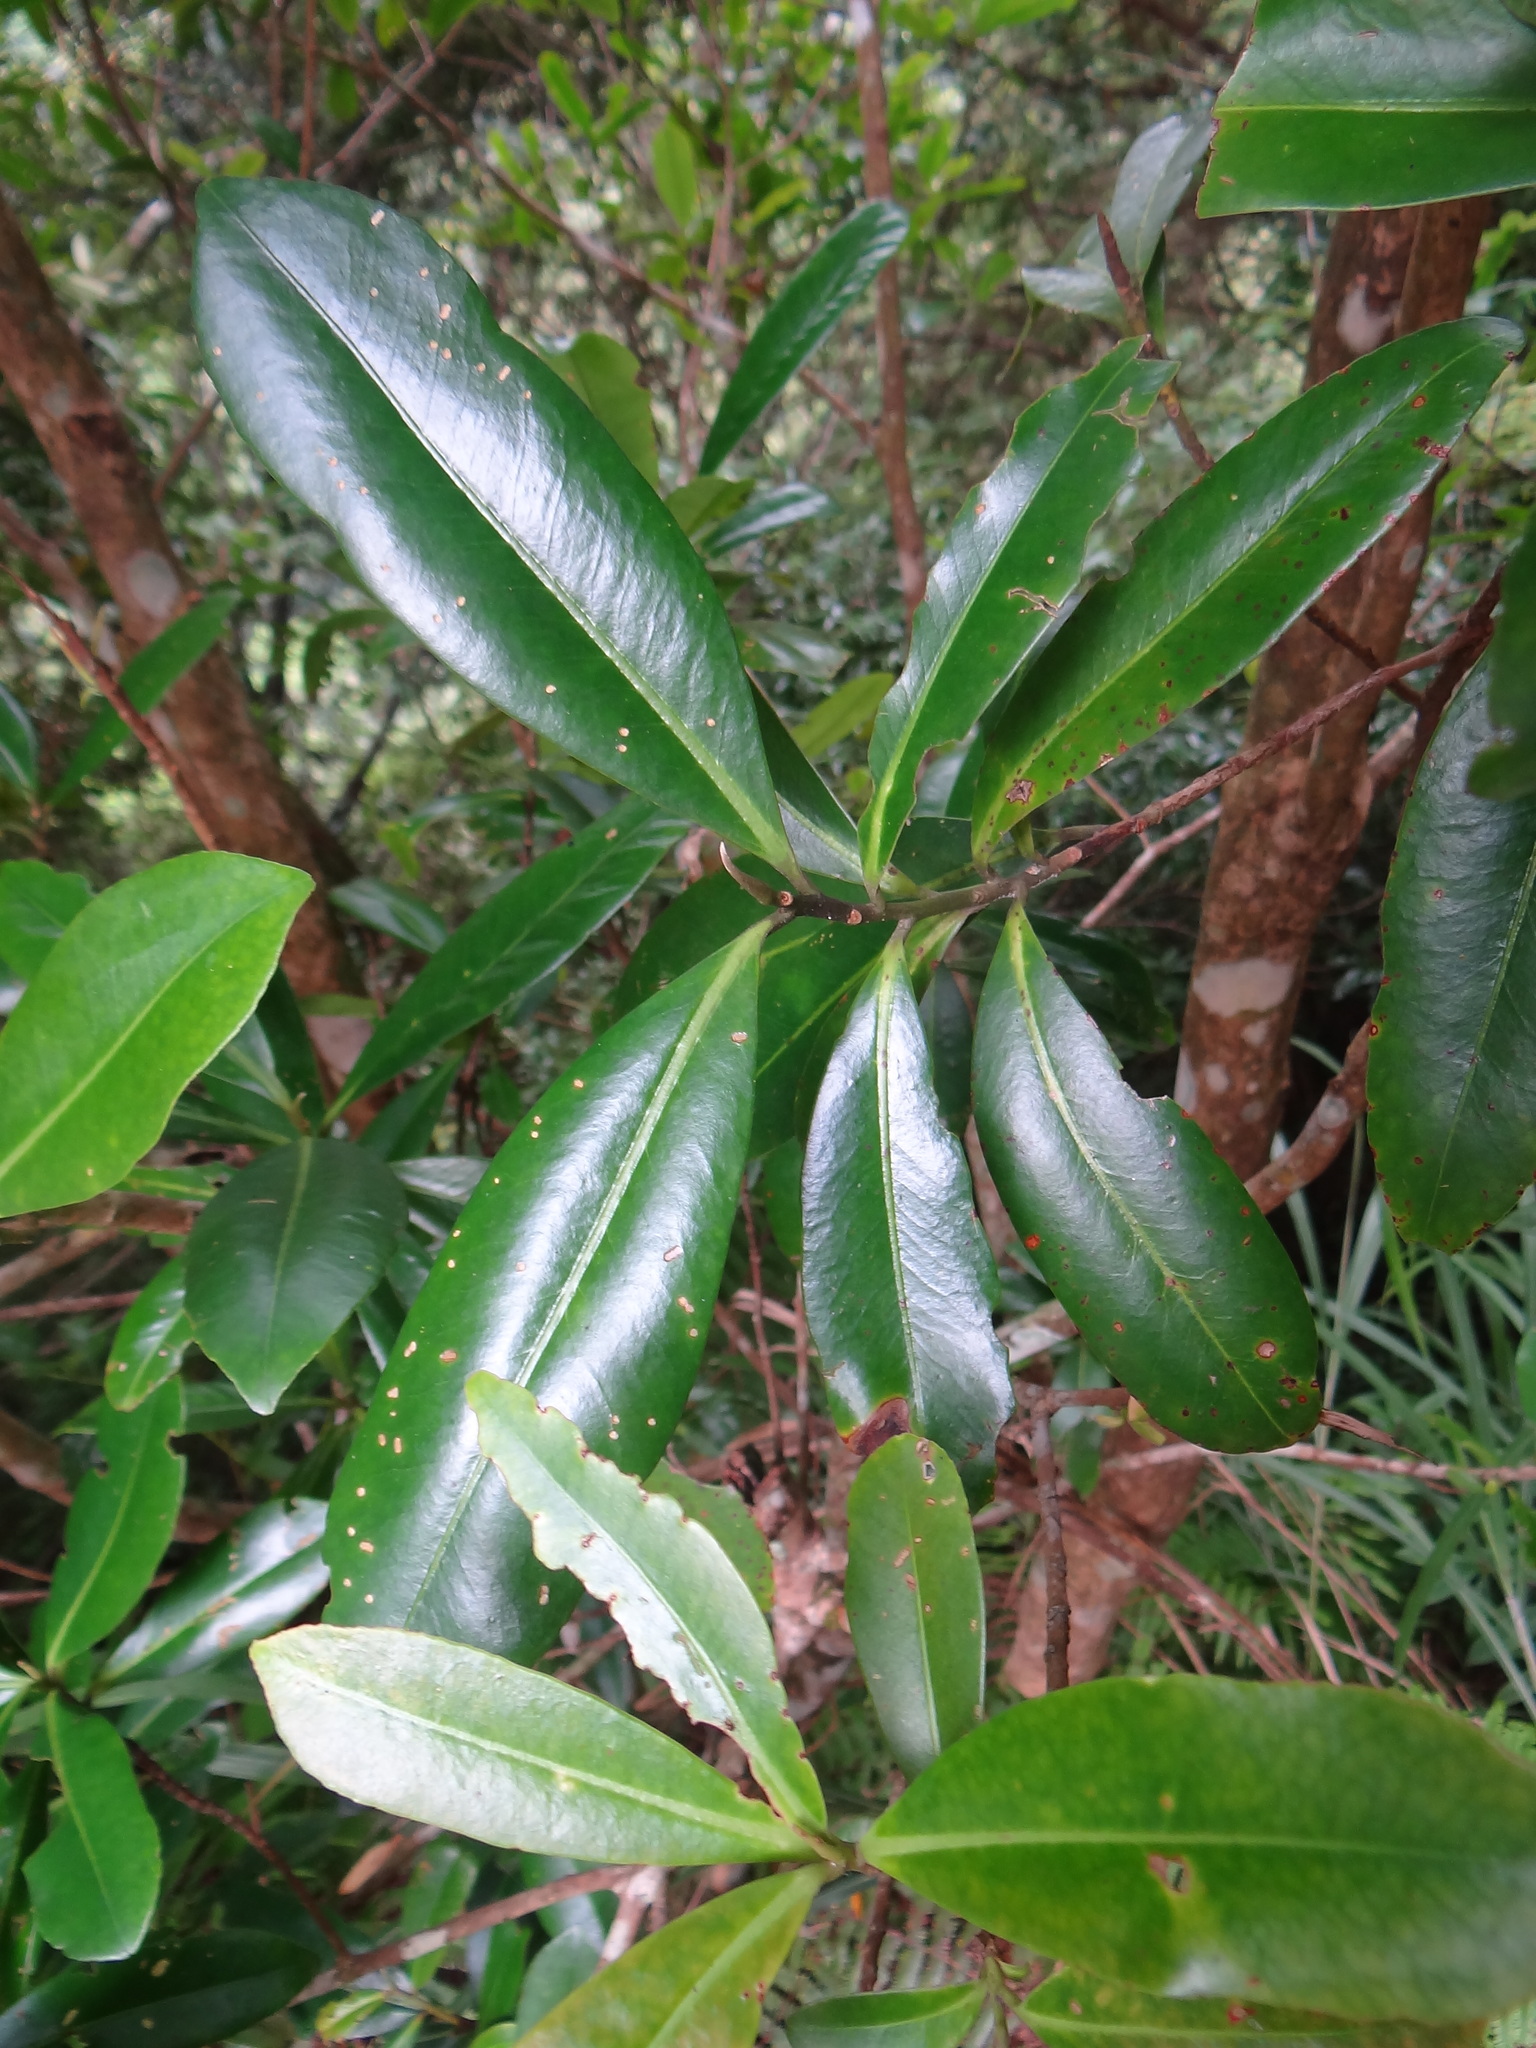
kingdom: Plantae
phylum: Tracheophyta
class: Magnoliopsida
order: Ericales
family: Theaceae
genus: Polyspora
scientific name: Polyspora axillaris
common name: Fried egg tree
